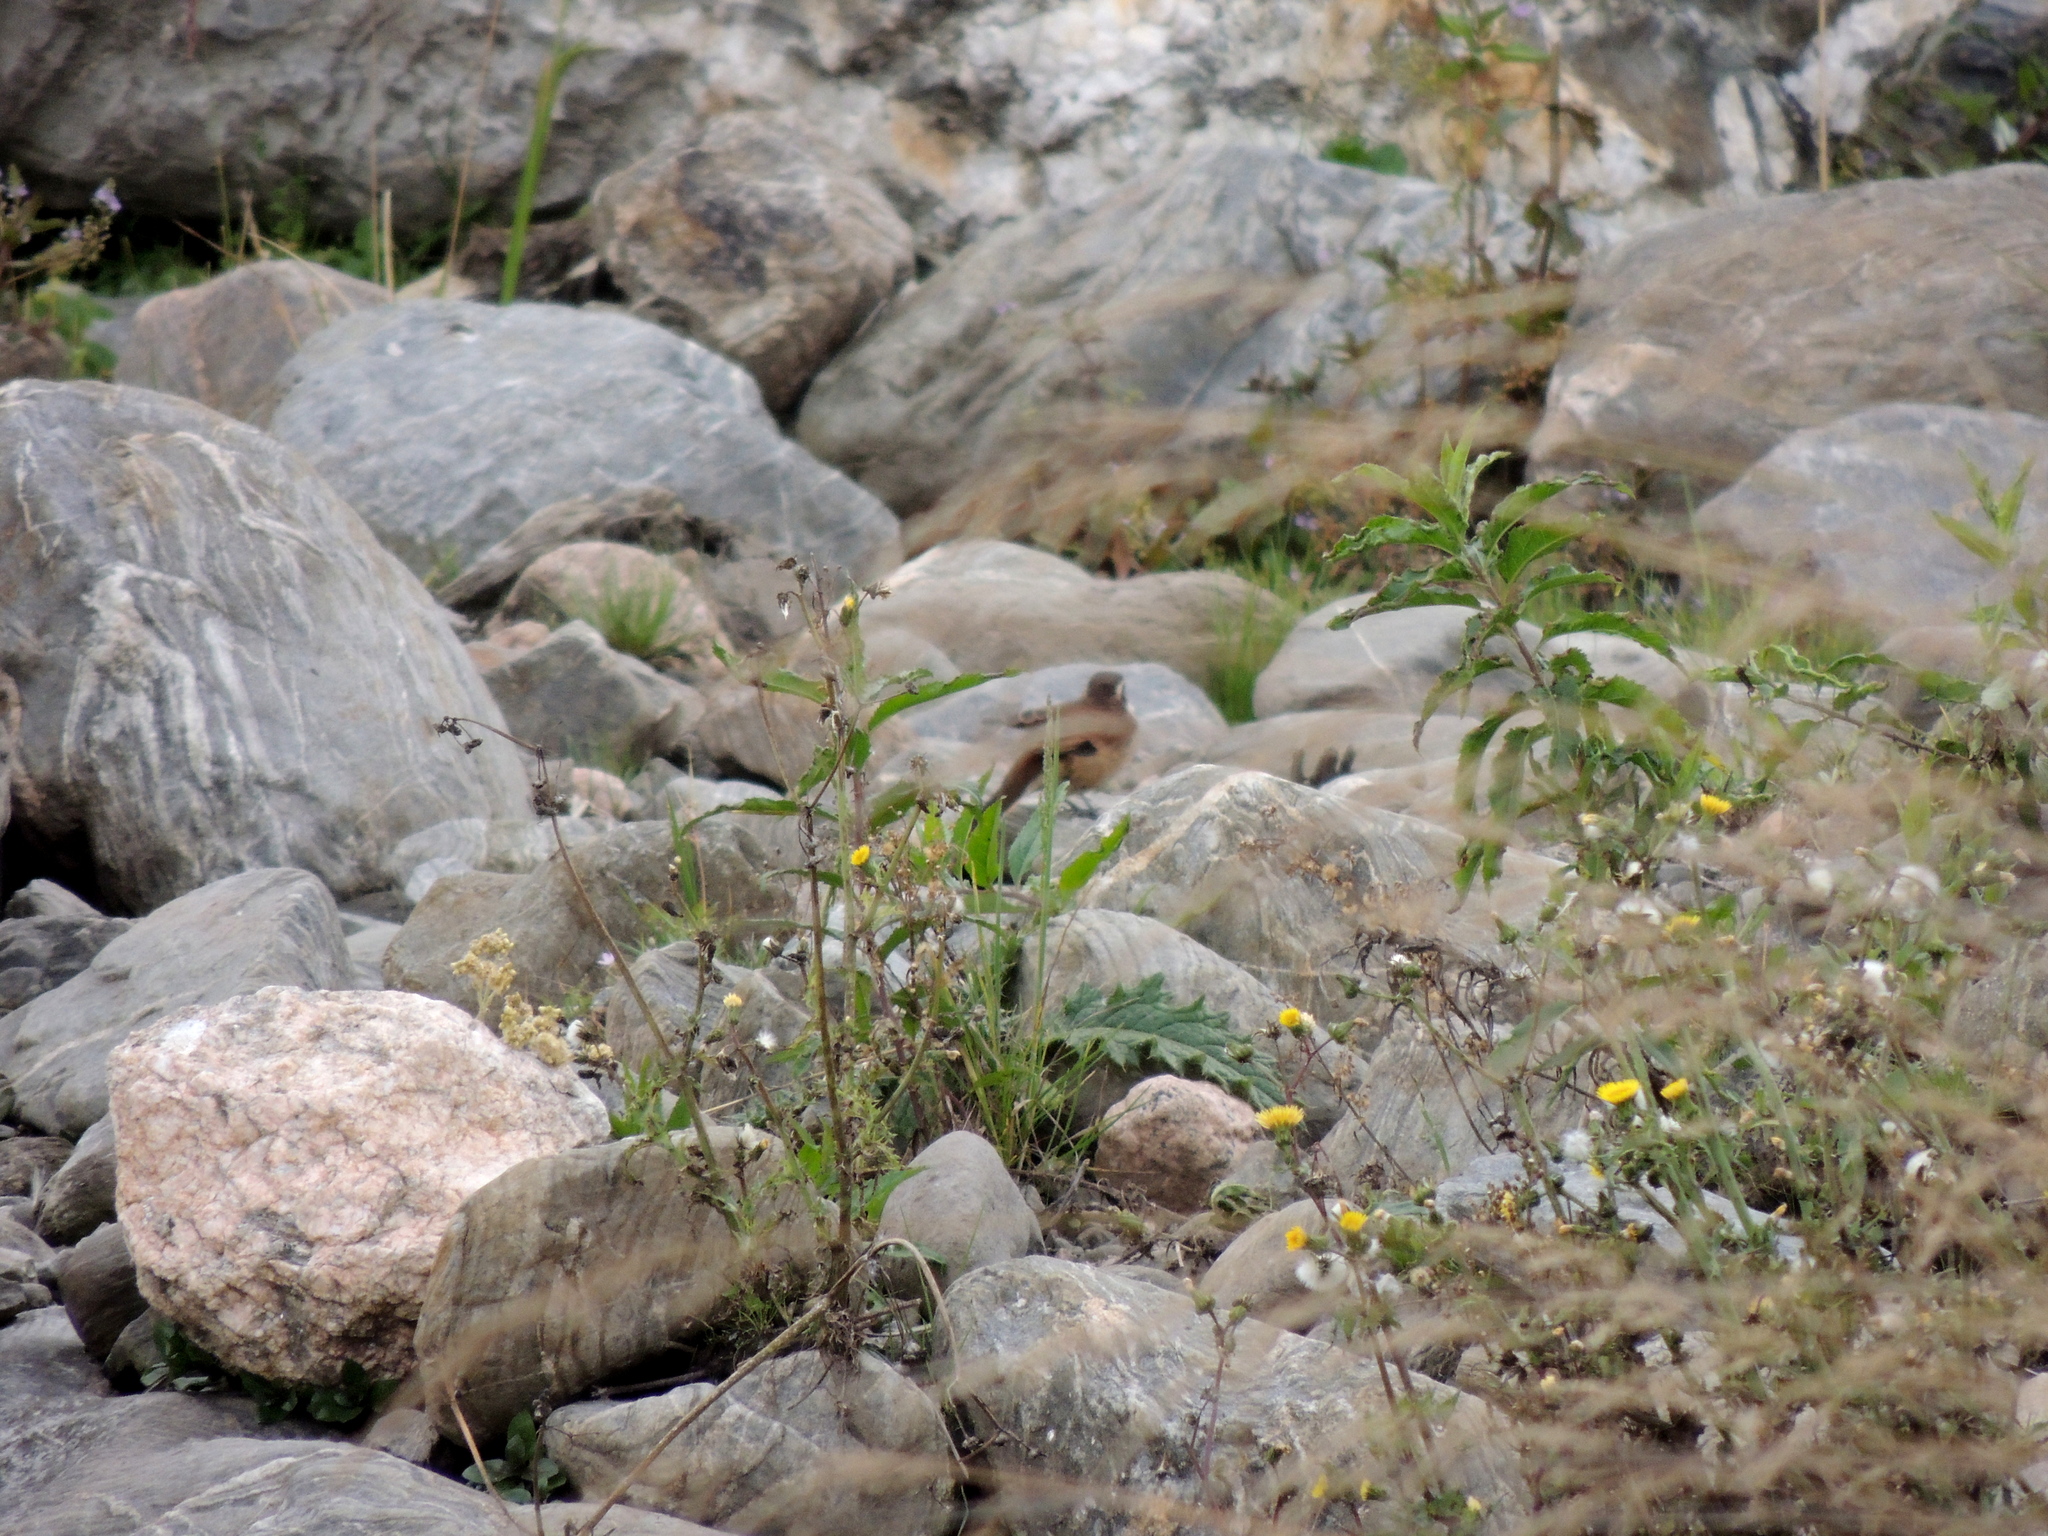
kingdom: Animalia
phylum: Chordata
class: Aves
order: Passeriformes
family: Furnariidae
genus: Cinclodes
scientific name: Cinclodes fuscus
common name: Buff-winged cinclodes
